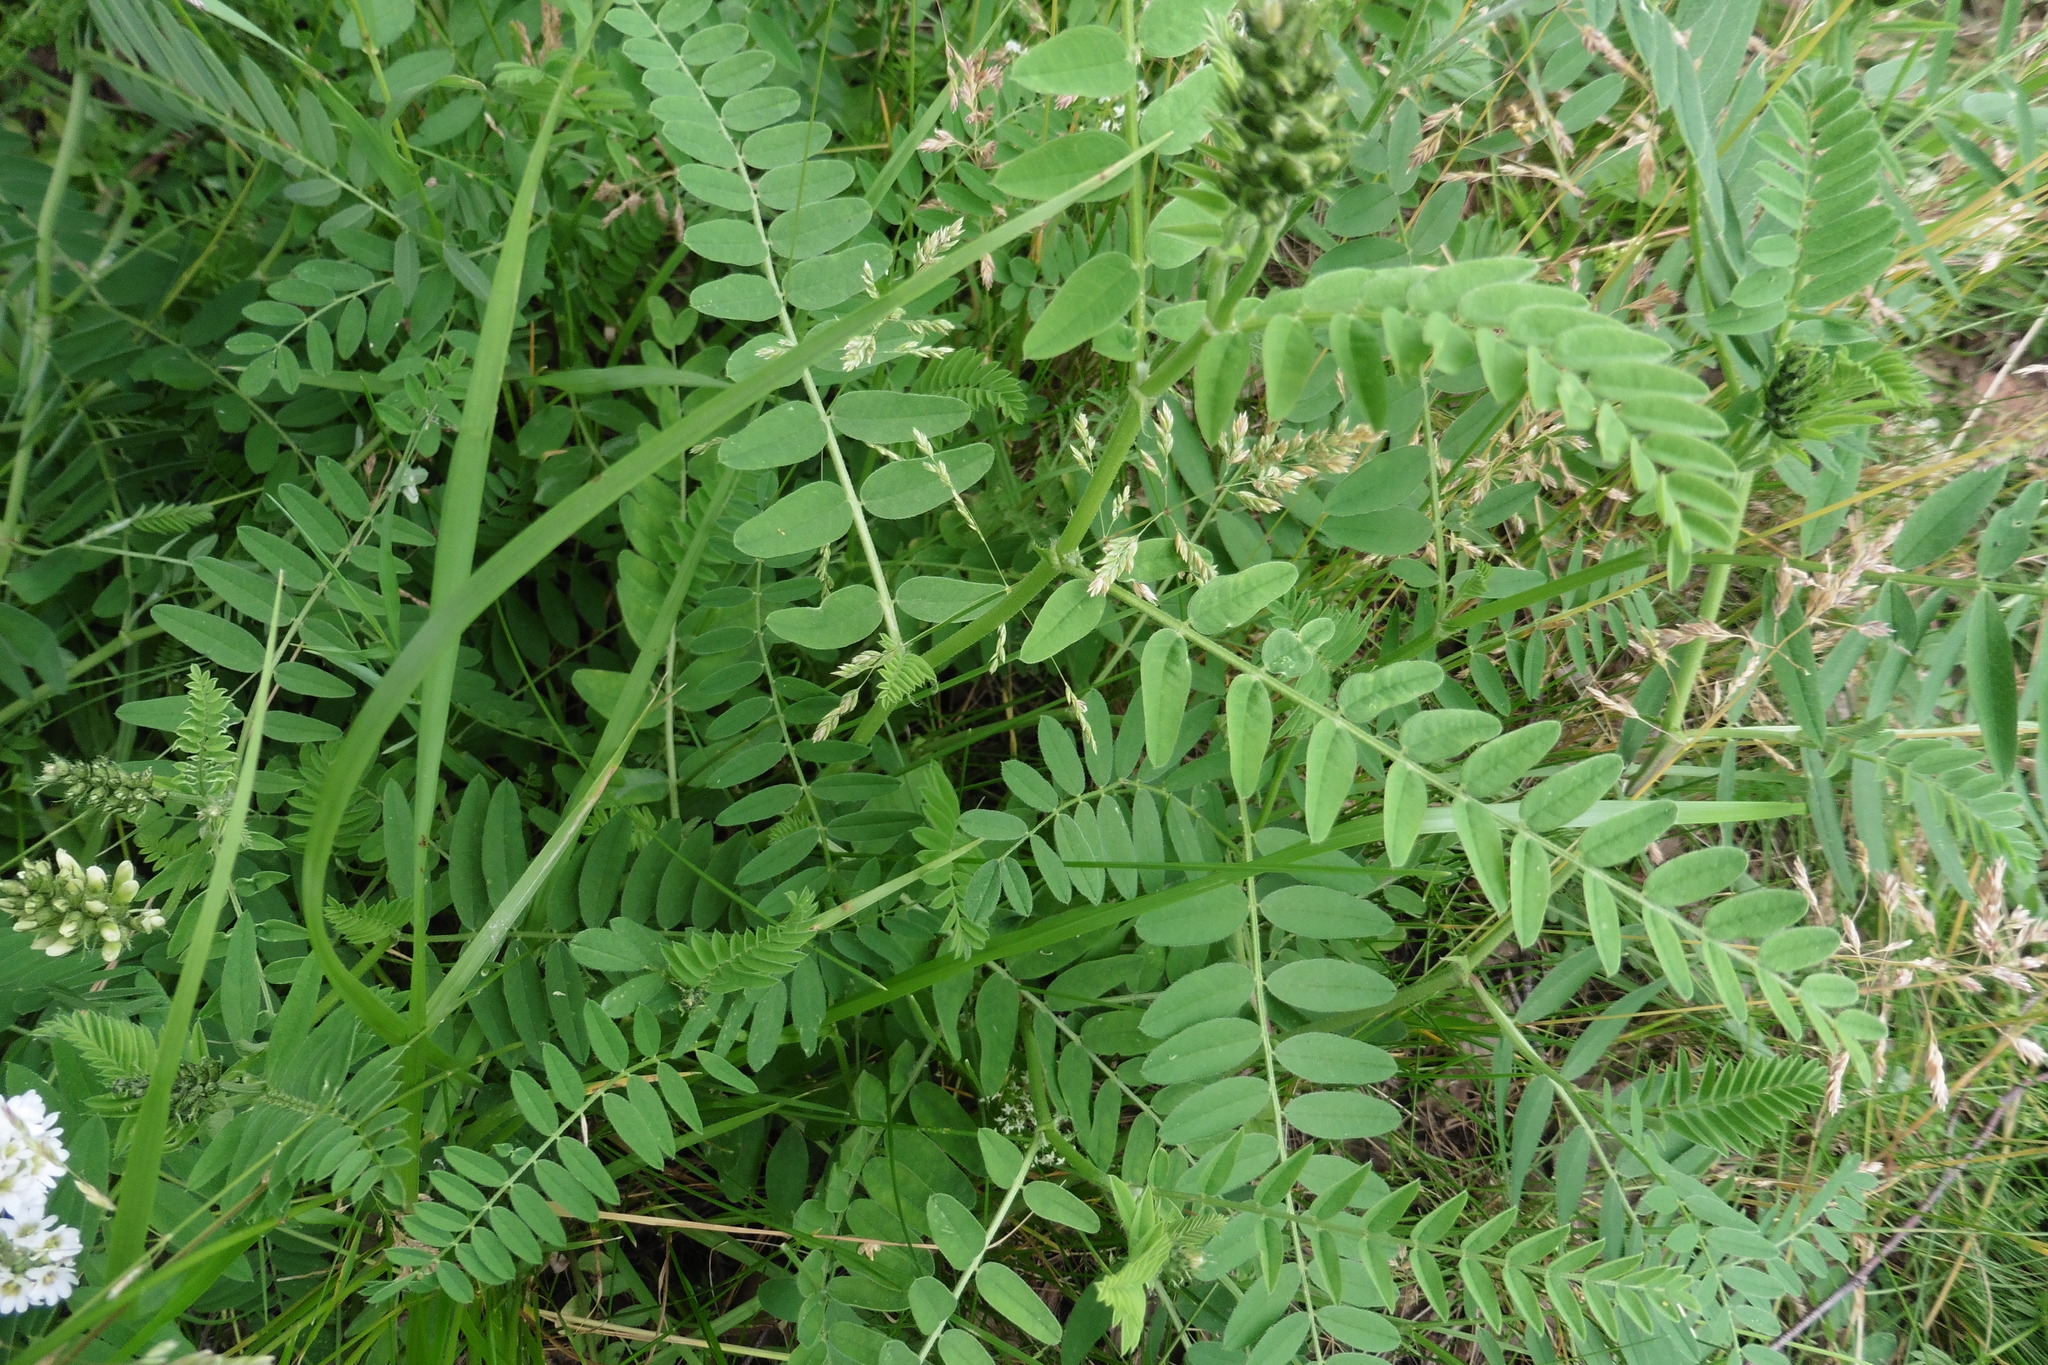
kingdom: Plantae
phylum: Tracheophyta
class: Magnoliopsida
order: Fabales
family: Fabaceae
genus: Astragalus
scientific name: Astragalus cicer
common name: Chick-pea milk-vetch
